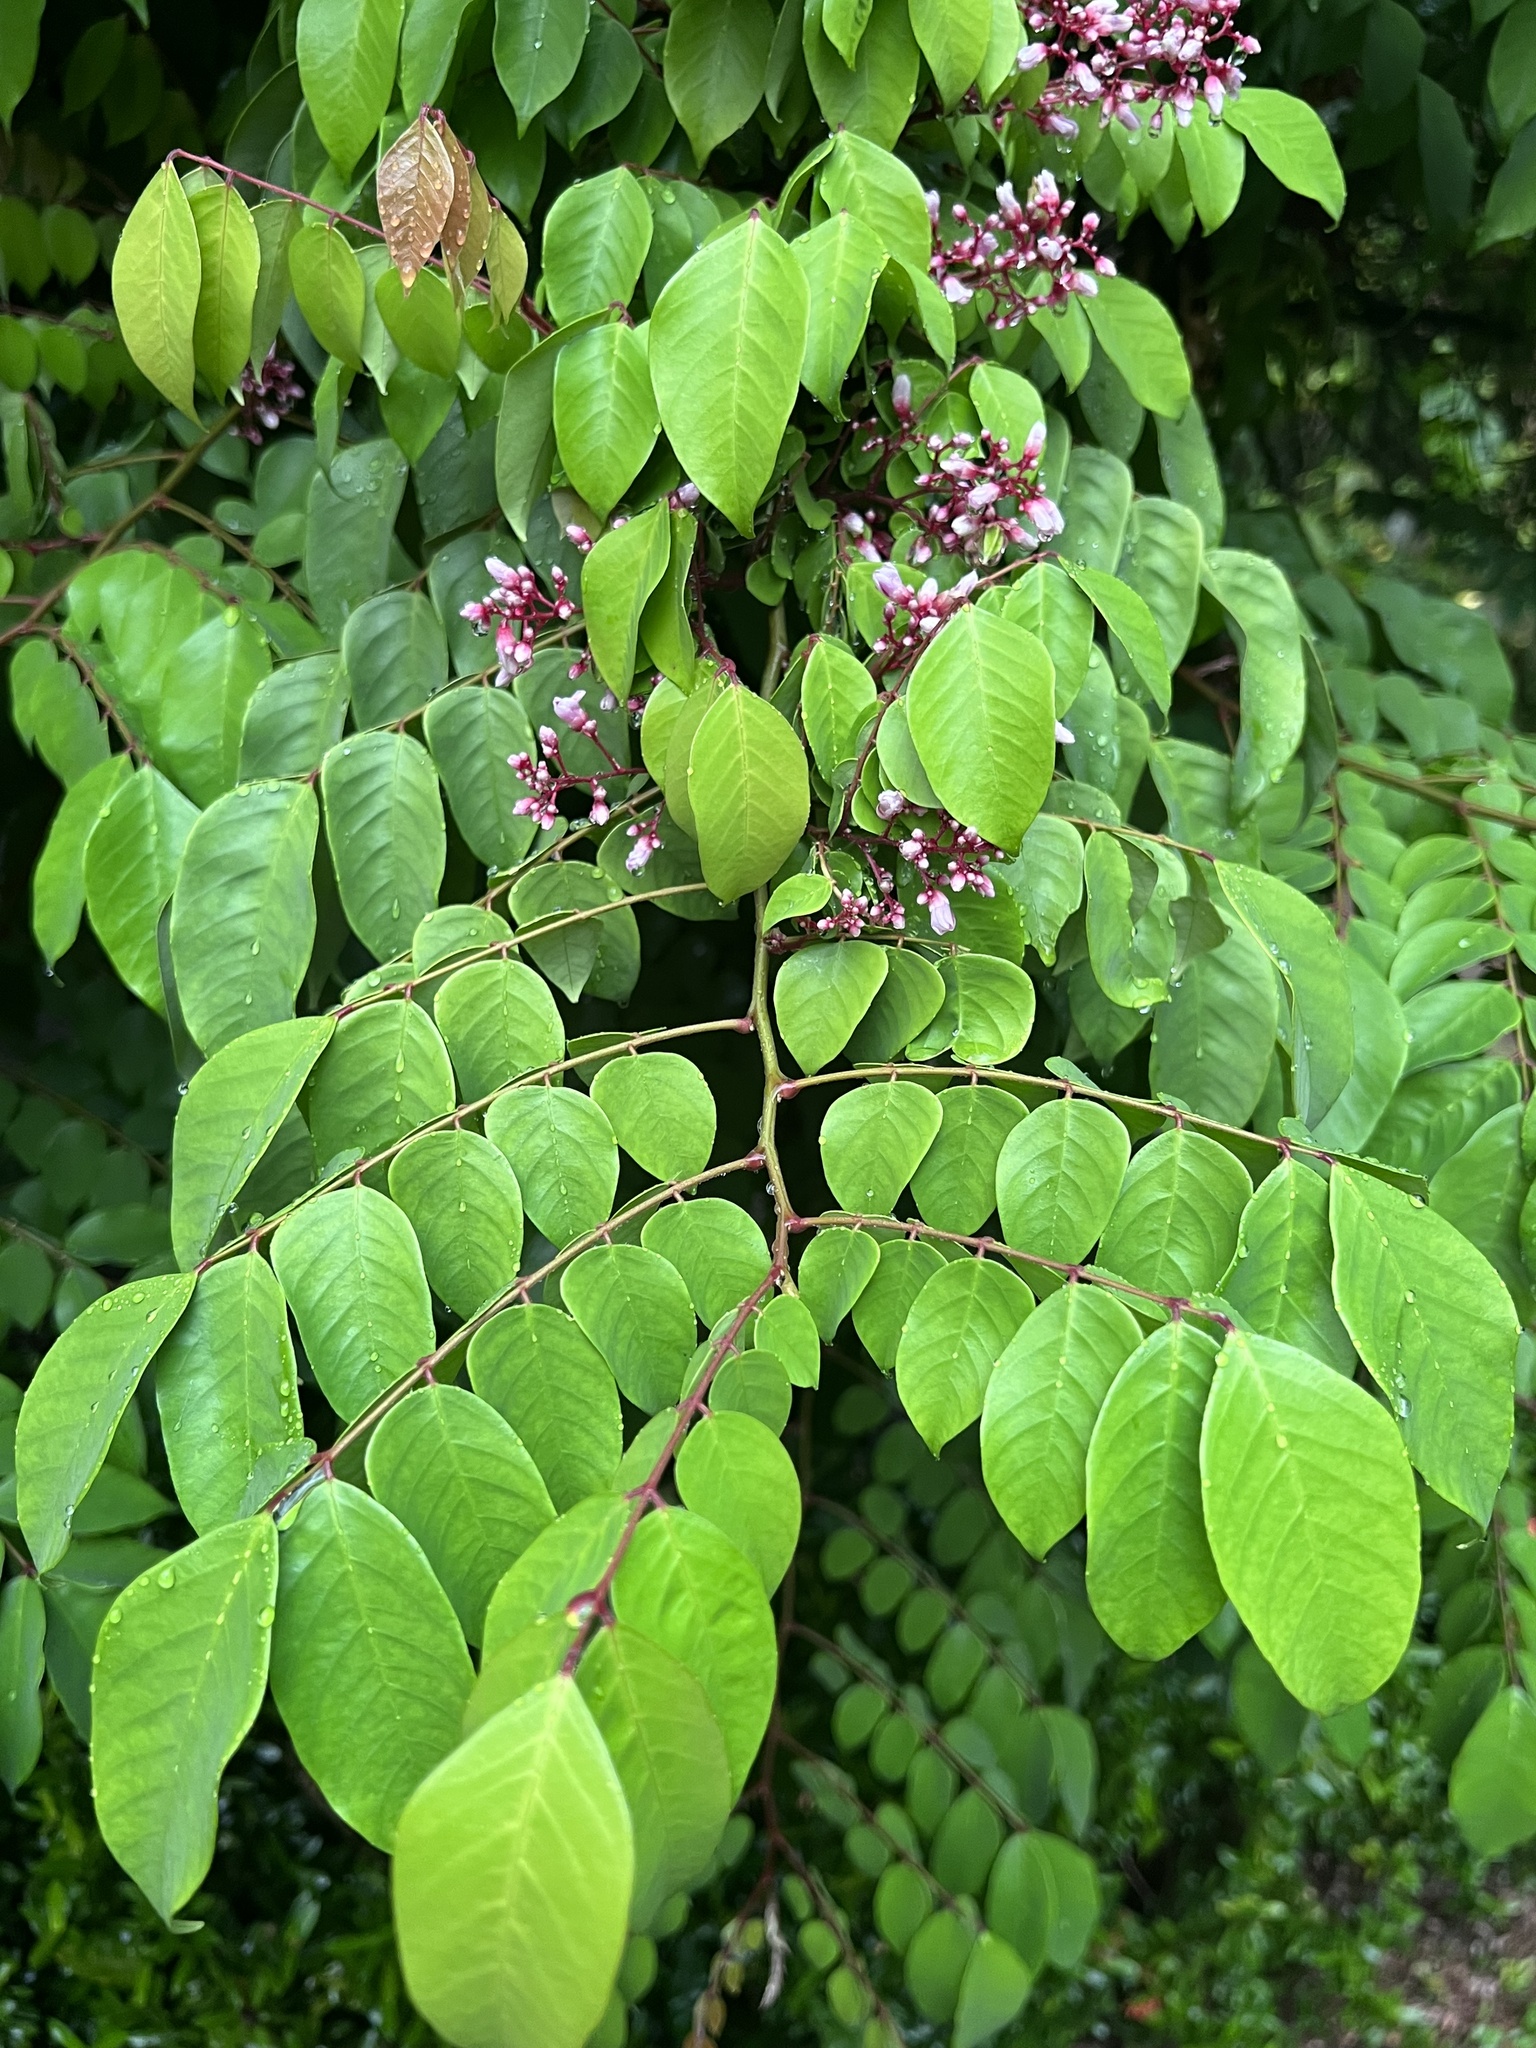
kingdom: Plantae
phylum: Tracheophyta
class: Magnoliopsida
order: Oxalidales
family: Oxalidaceae
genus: Averrhoa
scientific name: Averrhoa carambola
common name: Blimbing
